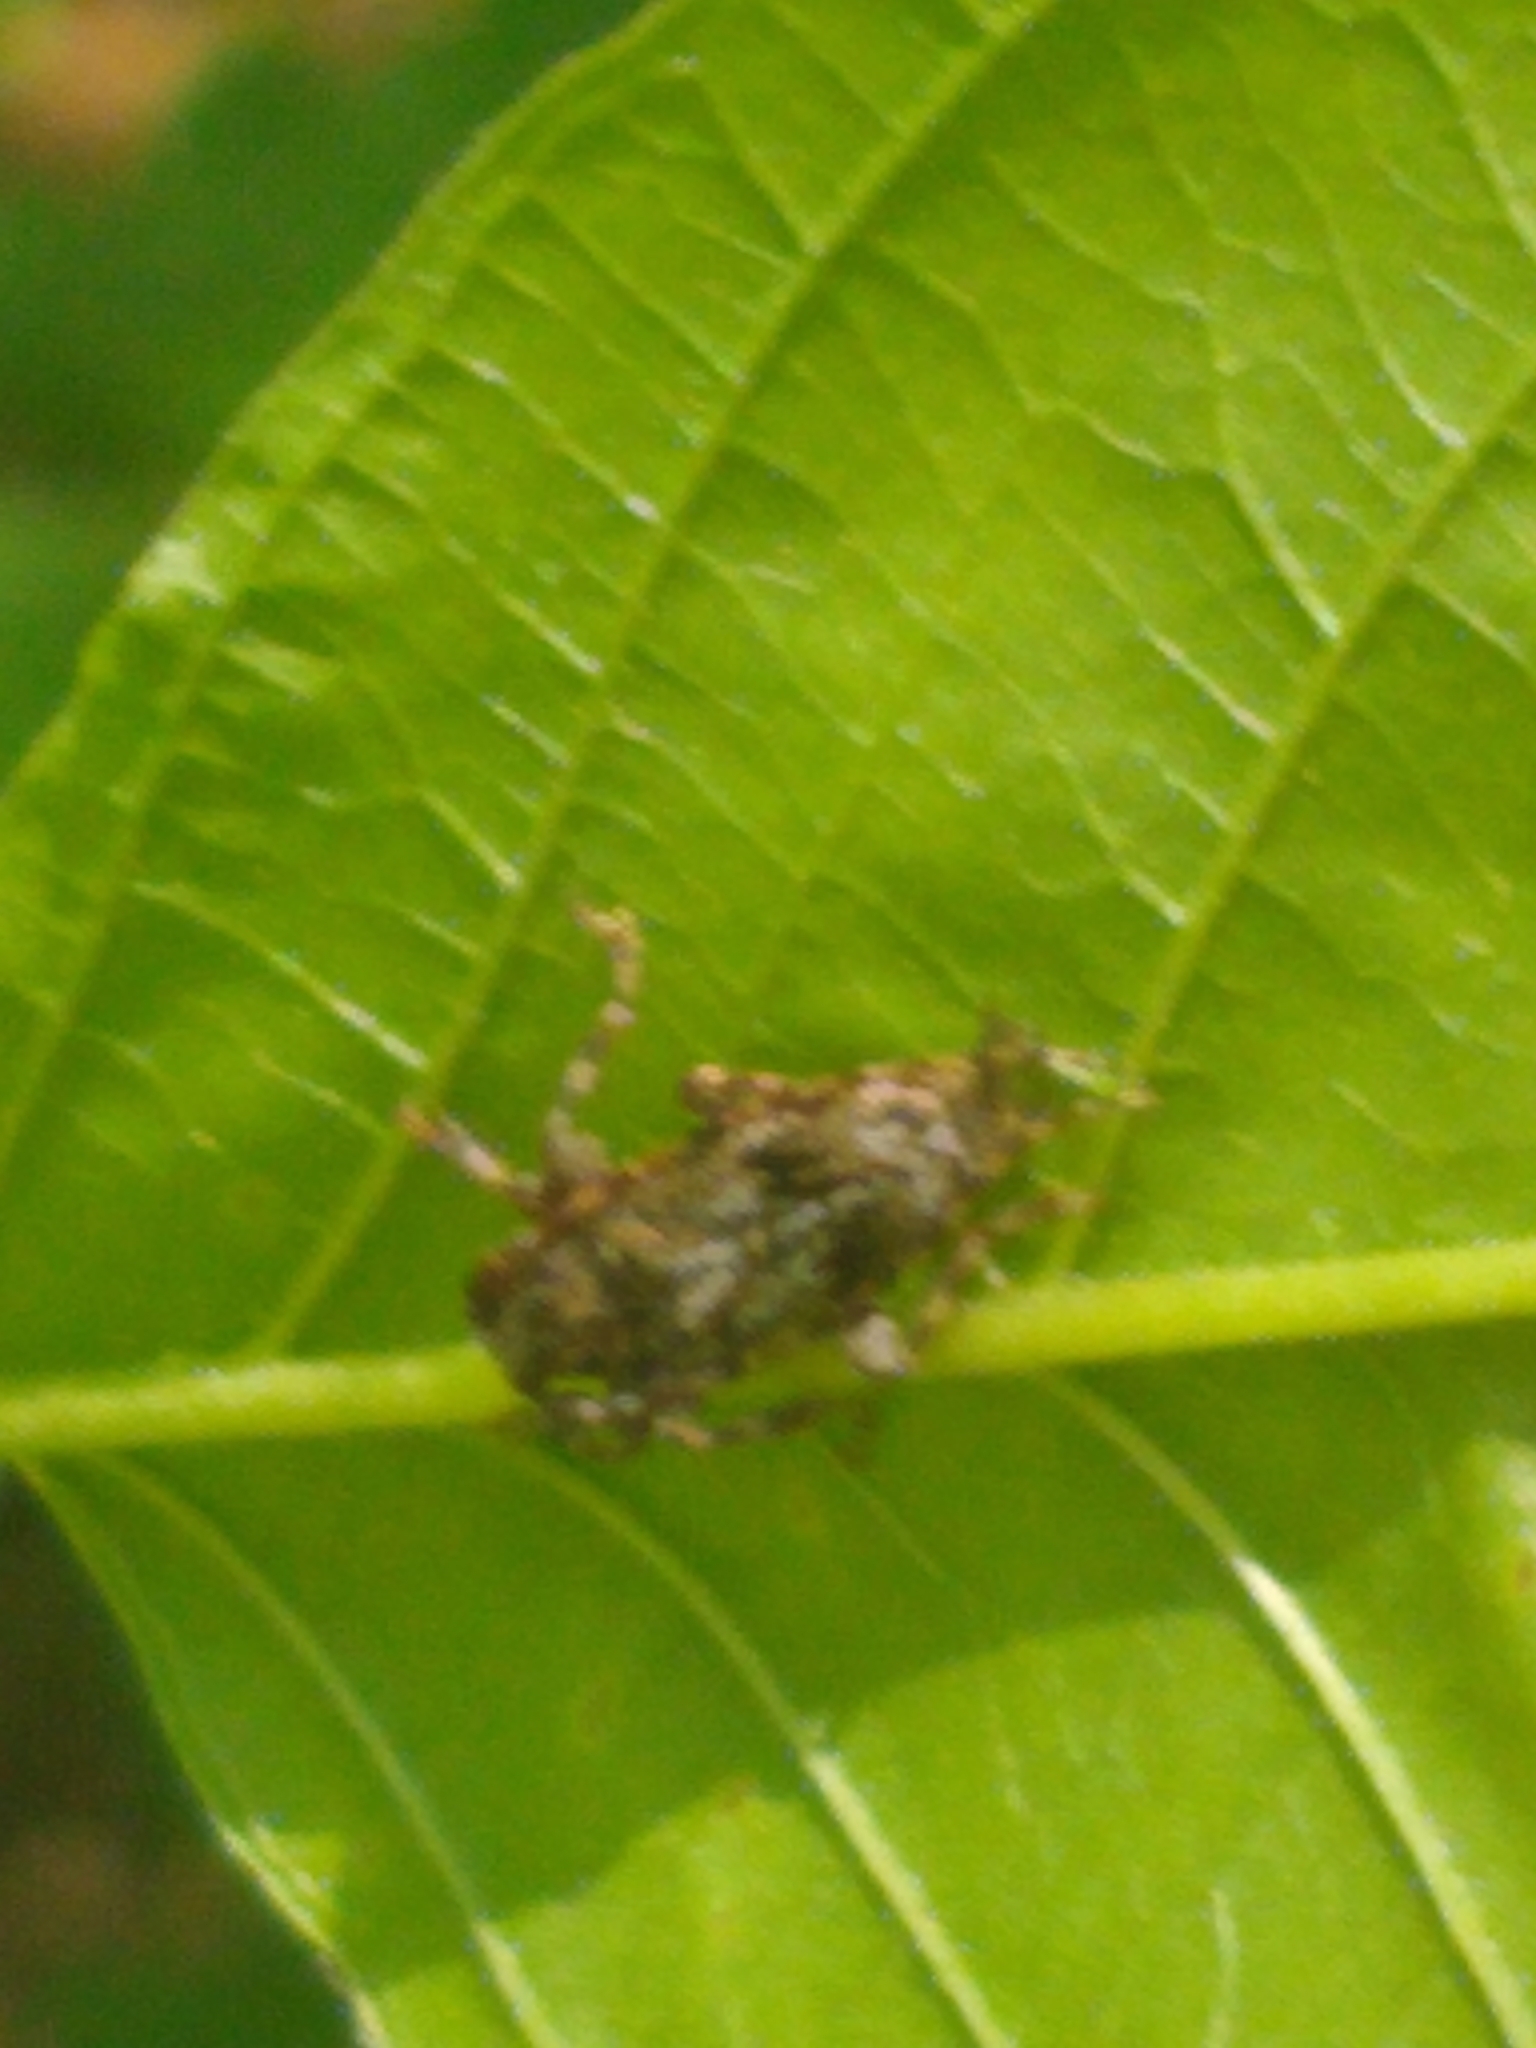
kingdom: Animalia
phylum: Arthropoda
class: Insecta
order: Coleoptera
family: Cerambycidae
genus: Aegomorphus
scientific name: Aegomorphus modestus
